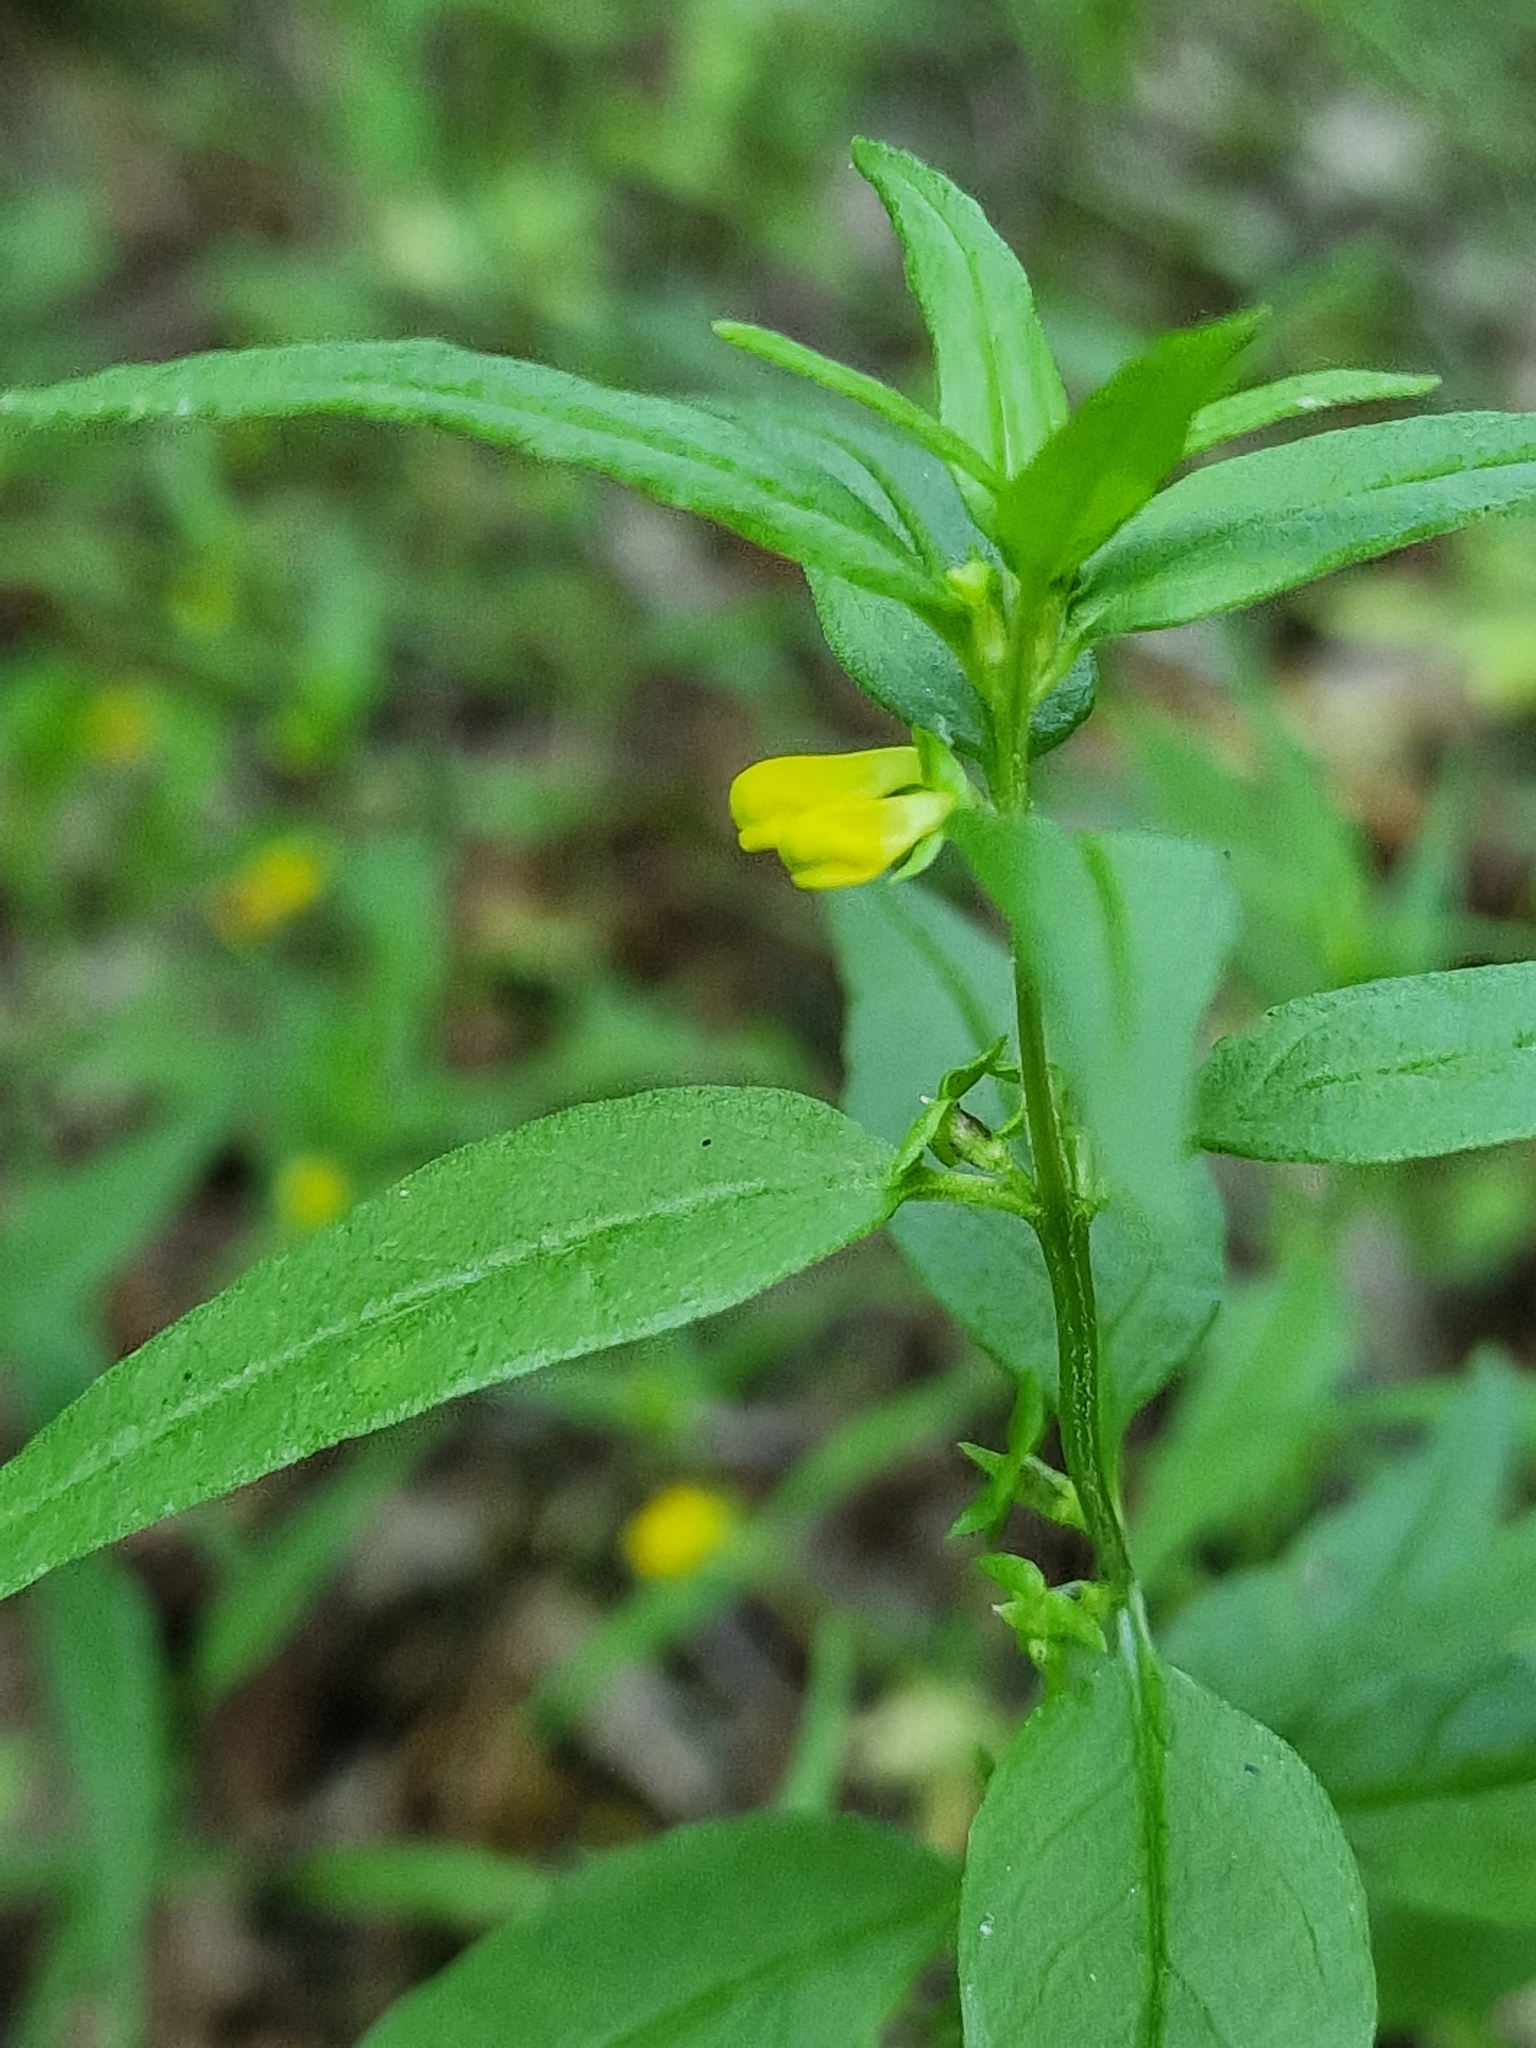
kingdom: Plantae
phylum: Tracheophyta
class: Magnoliopsida
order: Lamiales
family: Orobanchaceae
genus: Melampyrum
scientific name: Melampyrum sylvaticum
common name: Small cow-wheat
